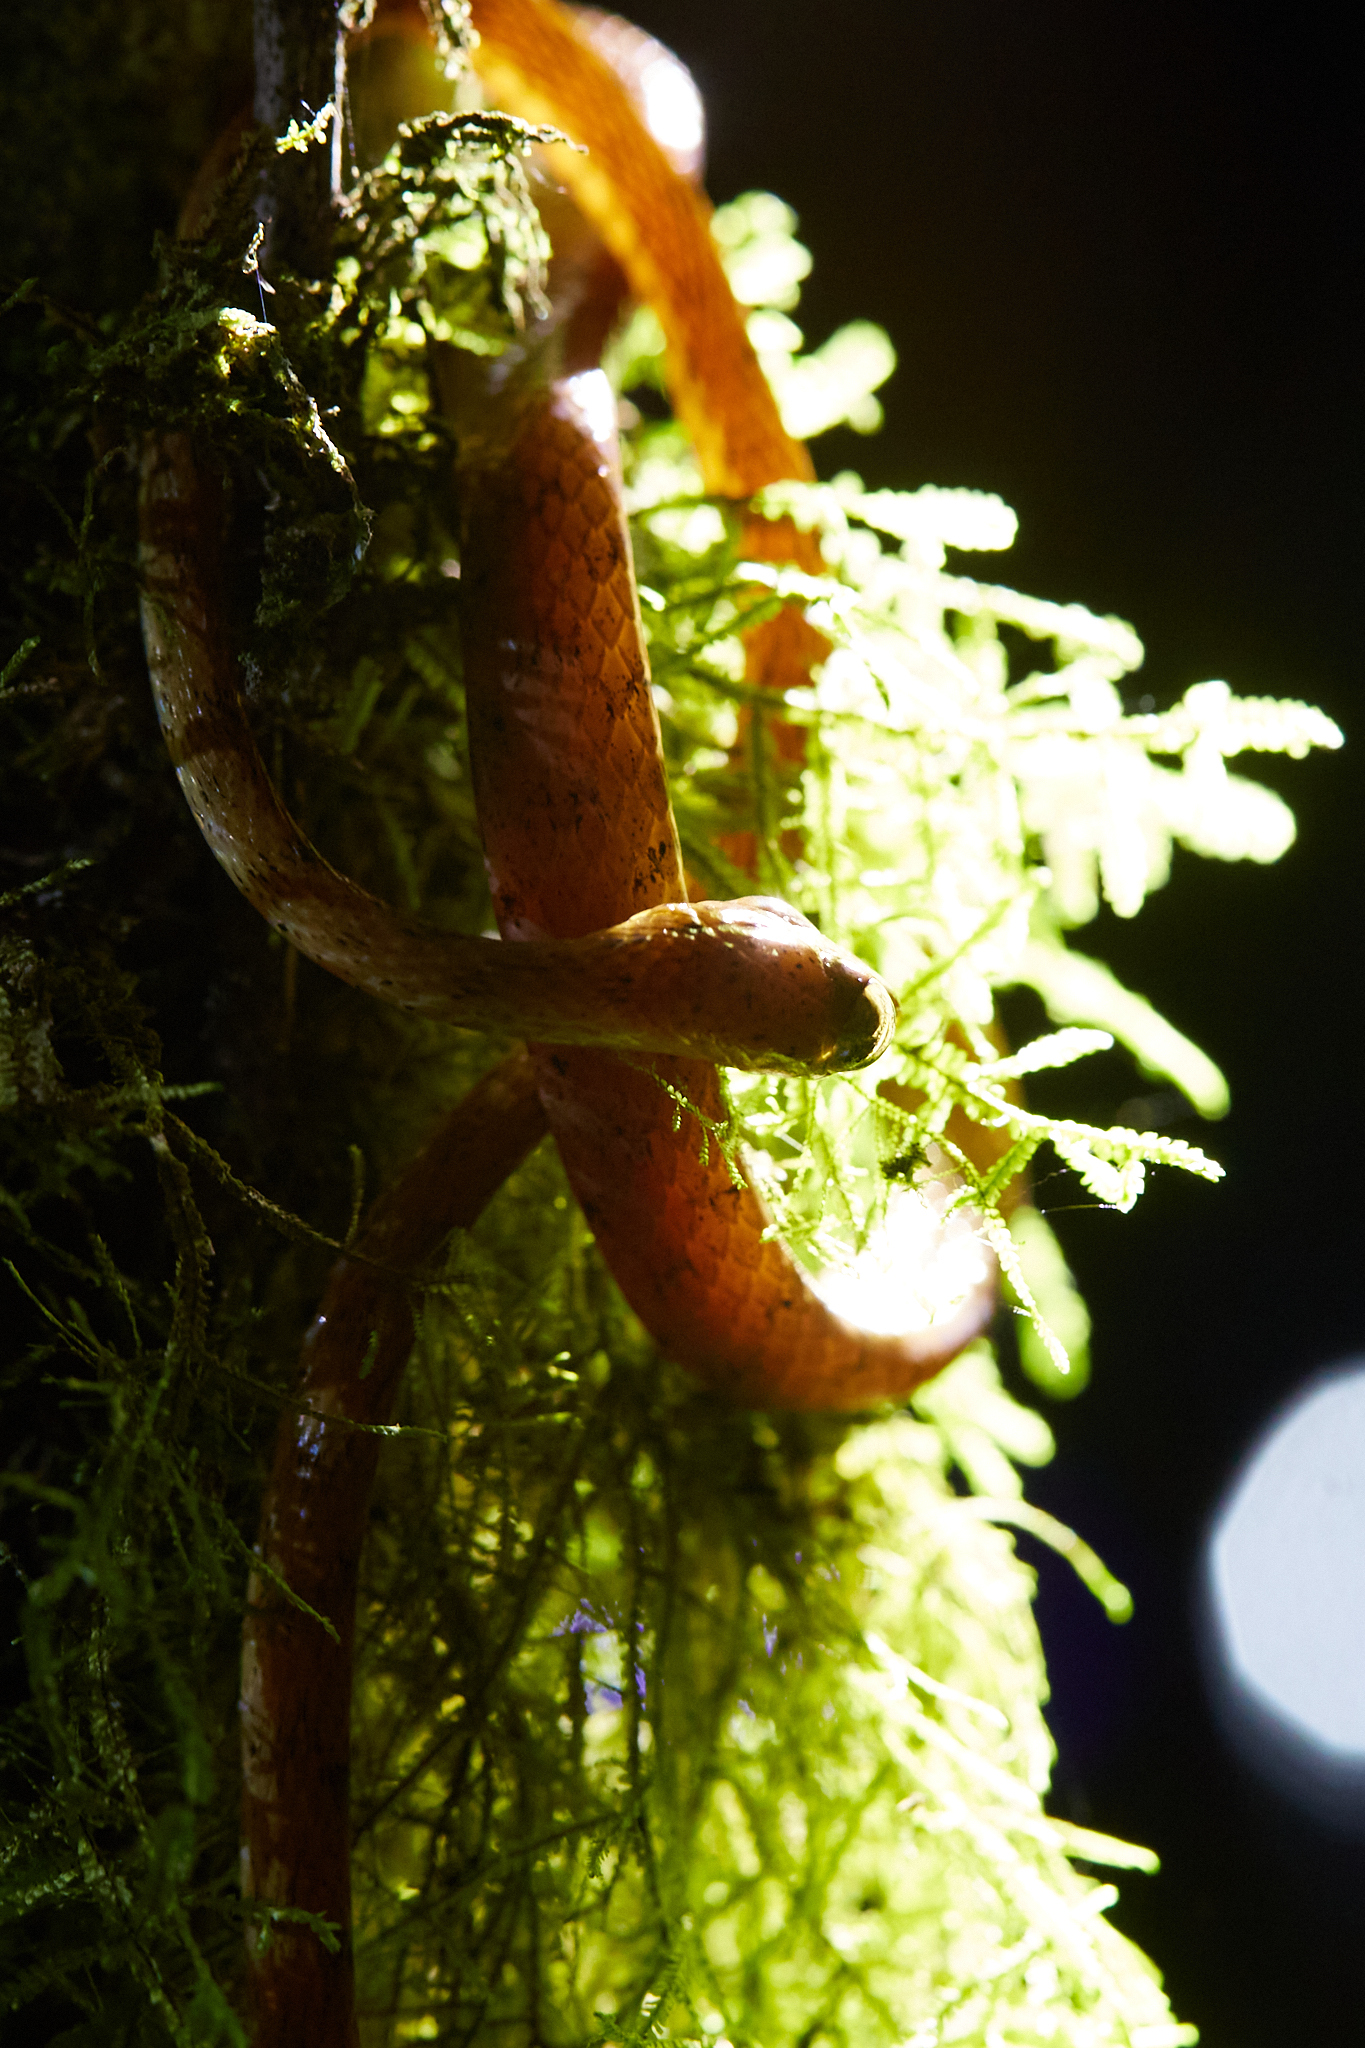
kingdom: Animalia
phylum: Chordata
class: Squamata
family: Colubridae
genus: Imantodes
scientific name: Imantodes inornatus
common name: Western tree snake
